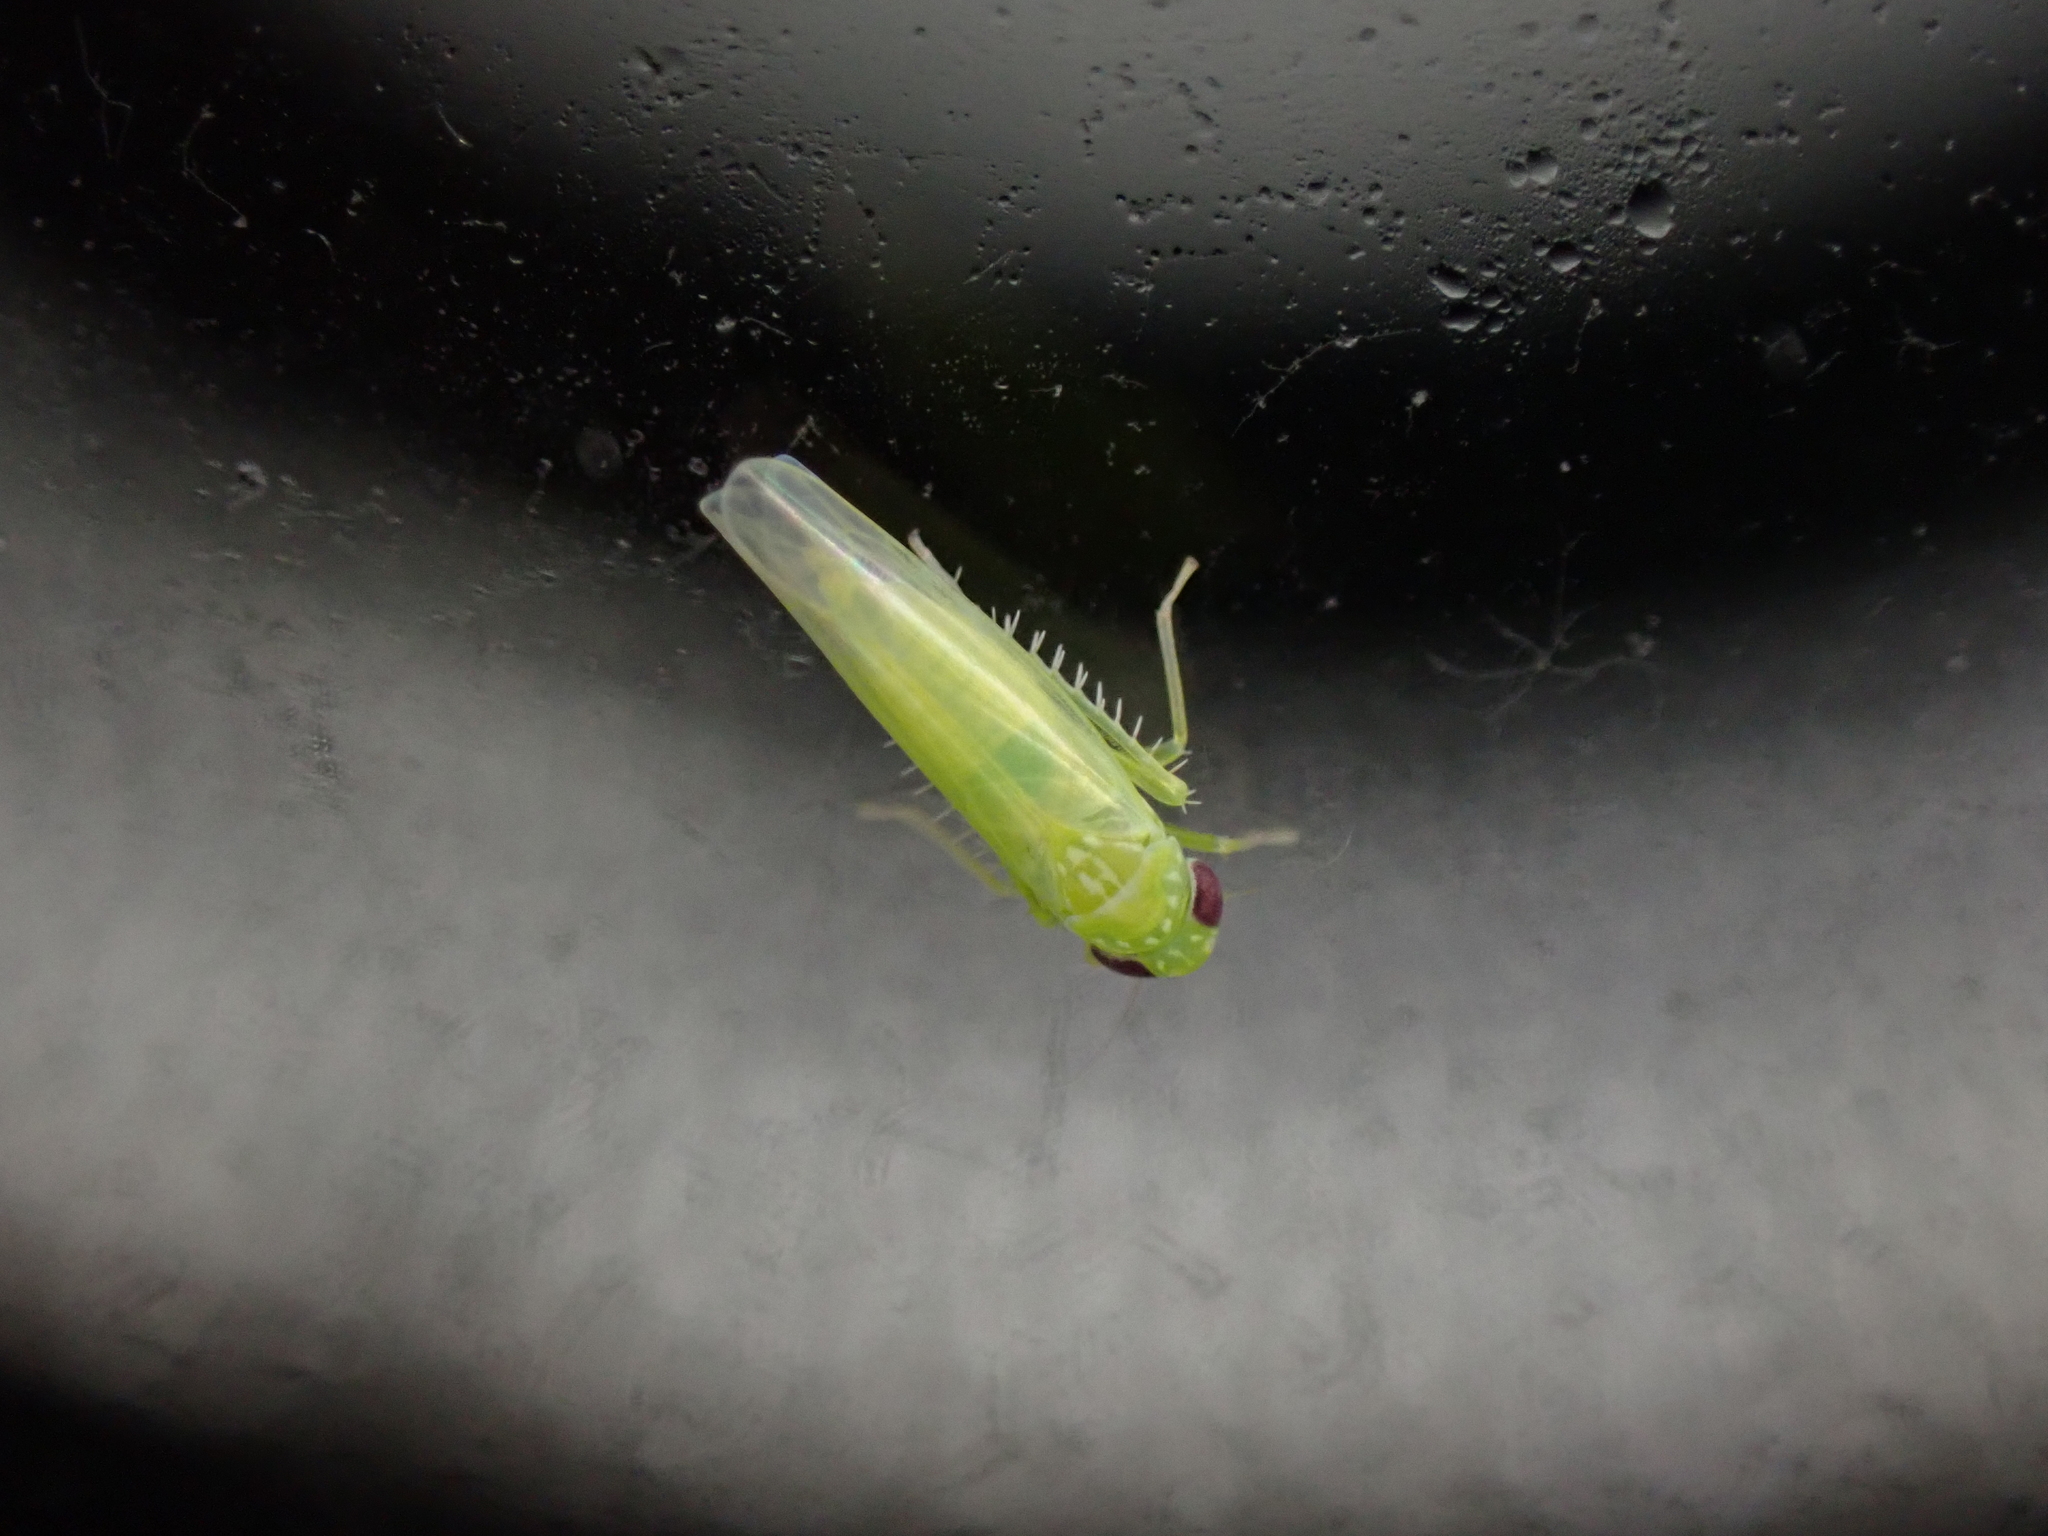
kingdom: Animalia
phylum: Arthropoda
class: Insecta
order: Hemiptera
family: Cicadellidae
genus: Empoasca
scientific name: Empoasca fabae
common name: Potato leafhopper
